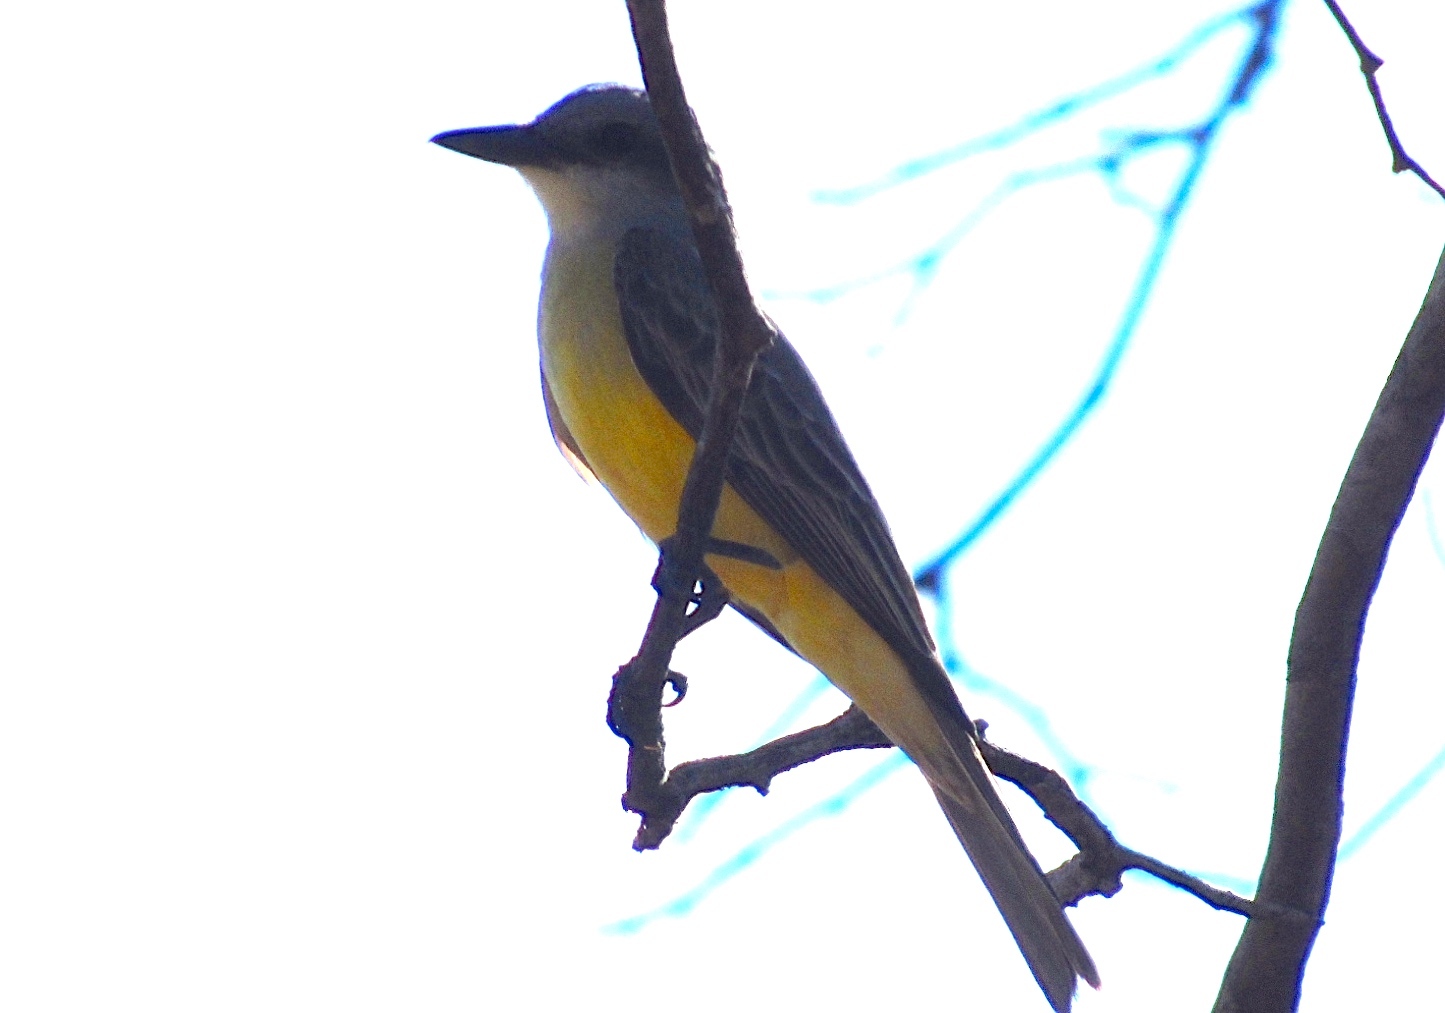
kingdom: Animalia
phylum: Chordata
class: Aves
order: Passeriformes
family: Tyrannidae
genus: Tyrannus
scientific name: Tyrannus melancholicus
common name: Tropical kingbird
